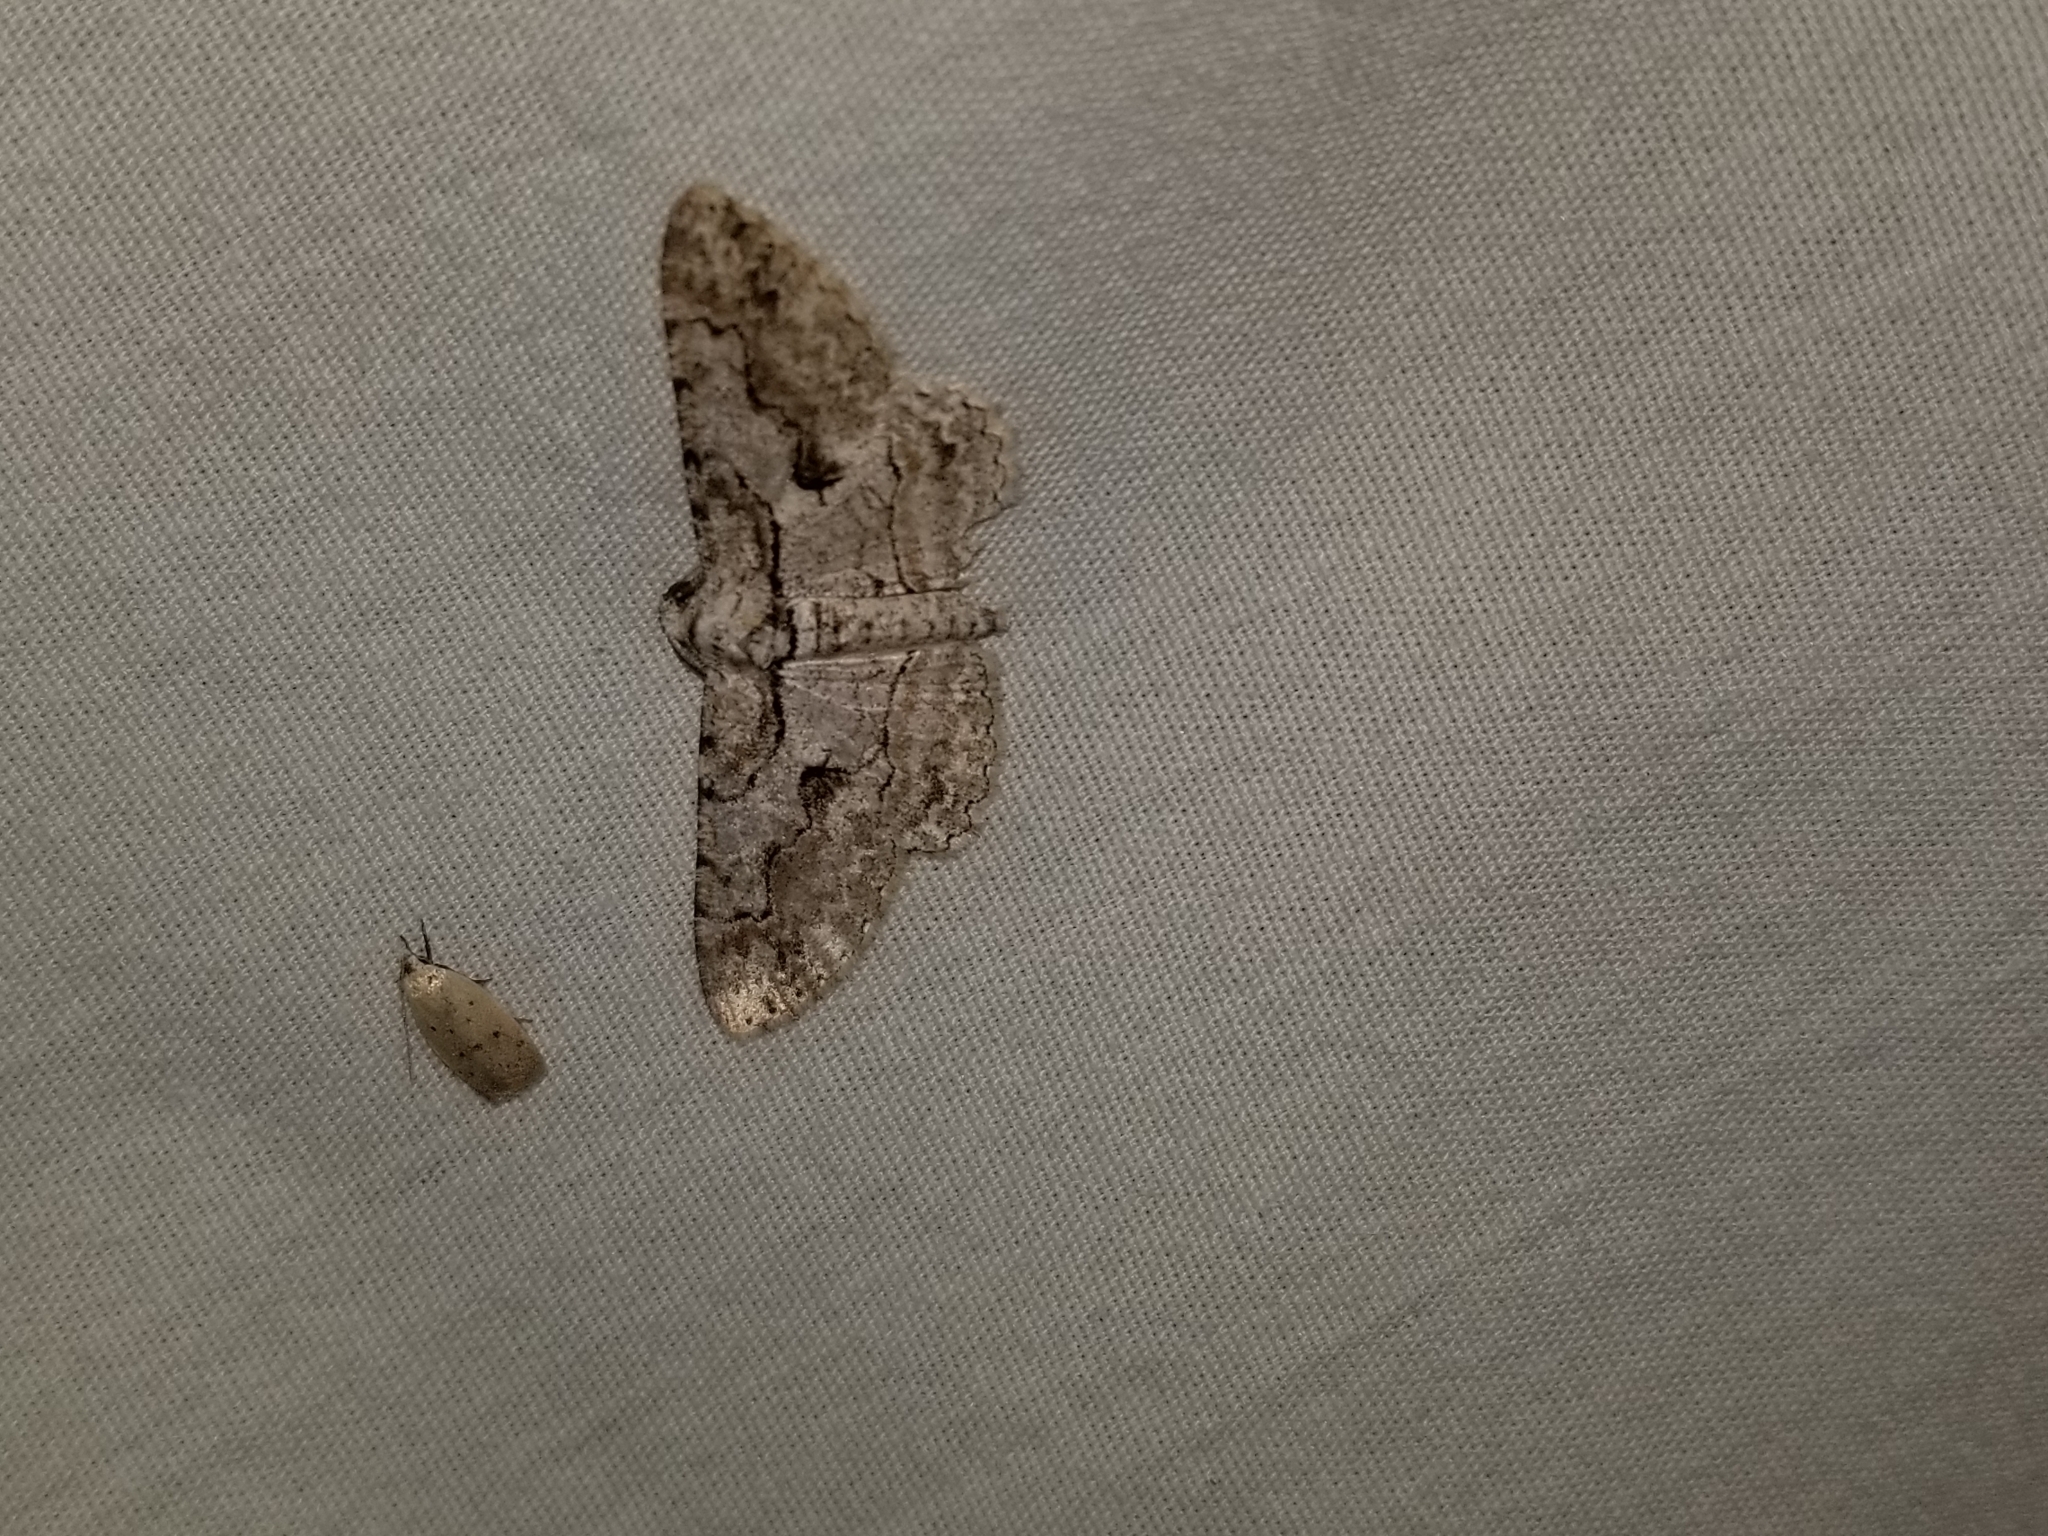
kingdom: Animalia
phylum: Arthropoda
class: Insecta
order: Lepidoptera
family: Geometridae
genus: Iridopsis
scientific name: Iridopsis defectaria
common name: Brown-shaded gray
